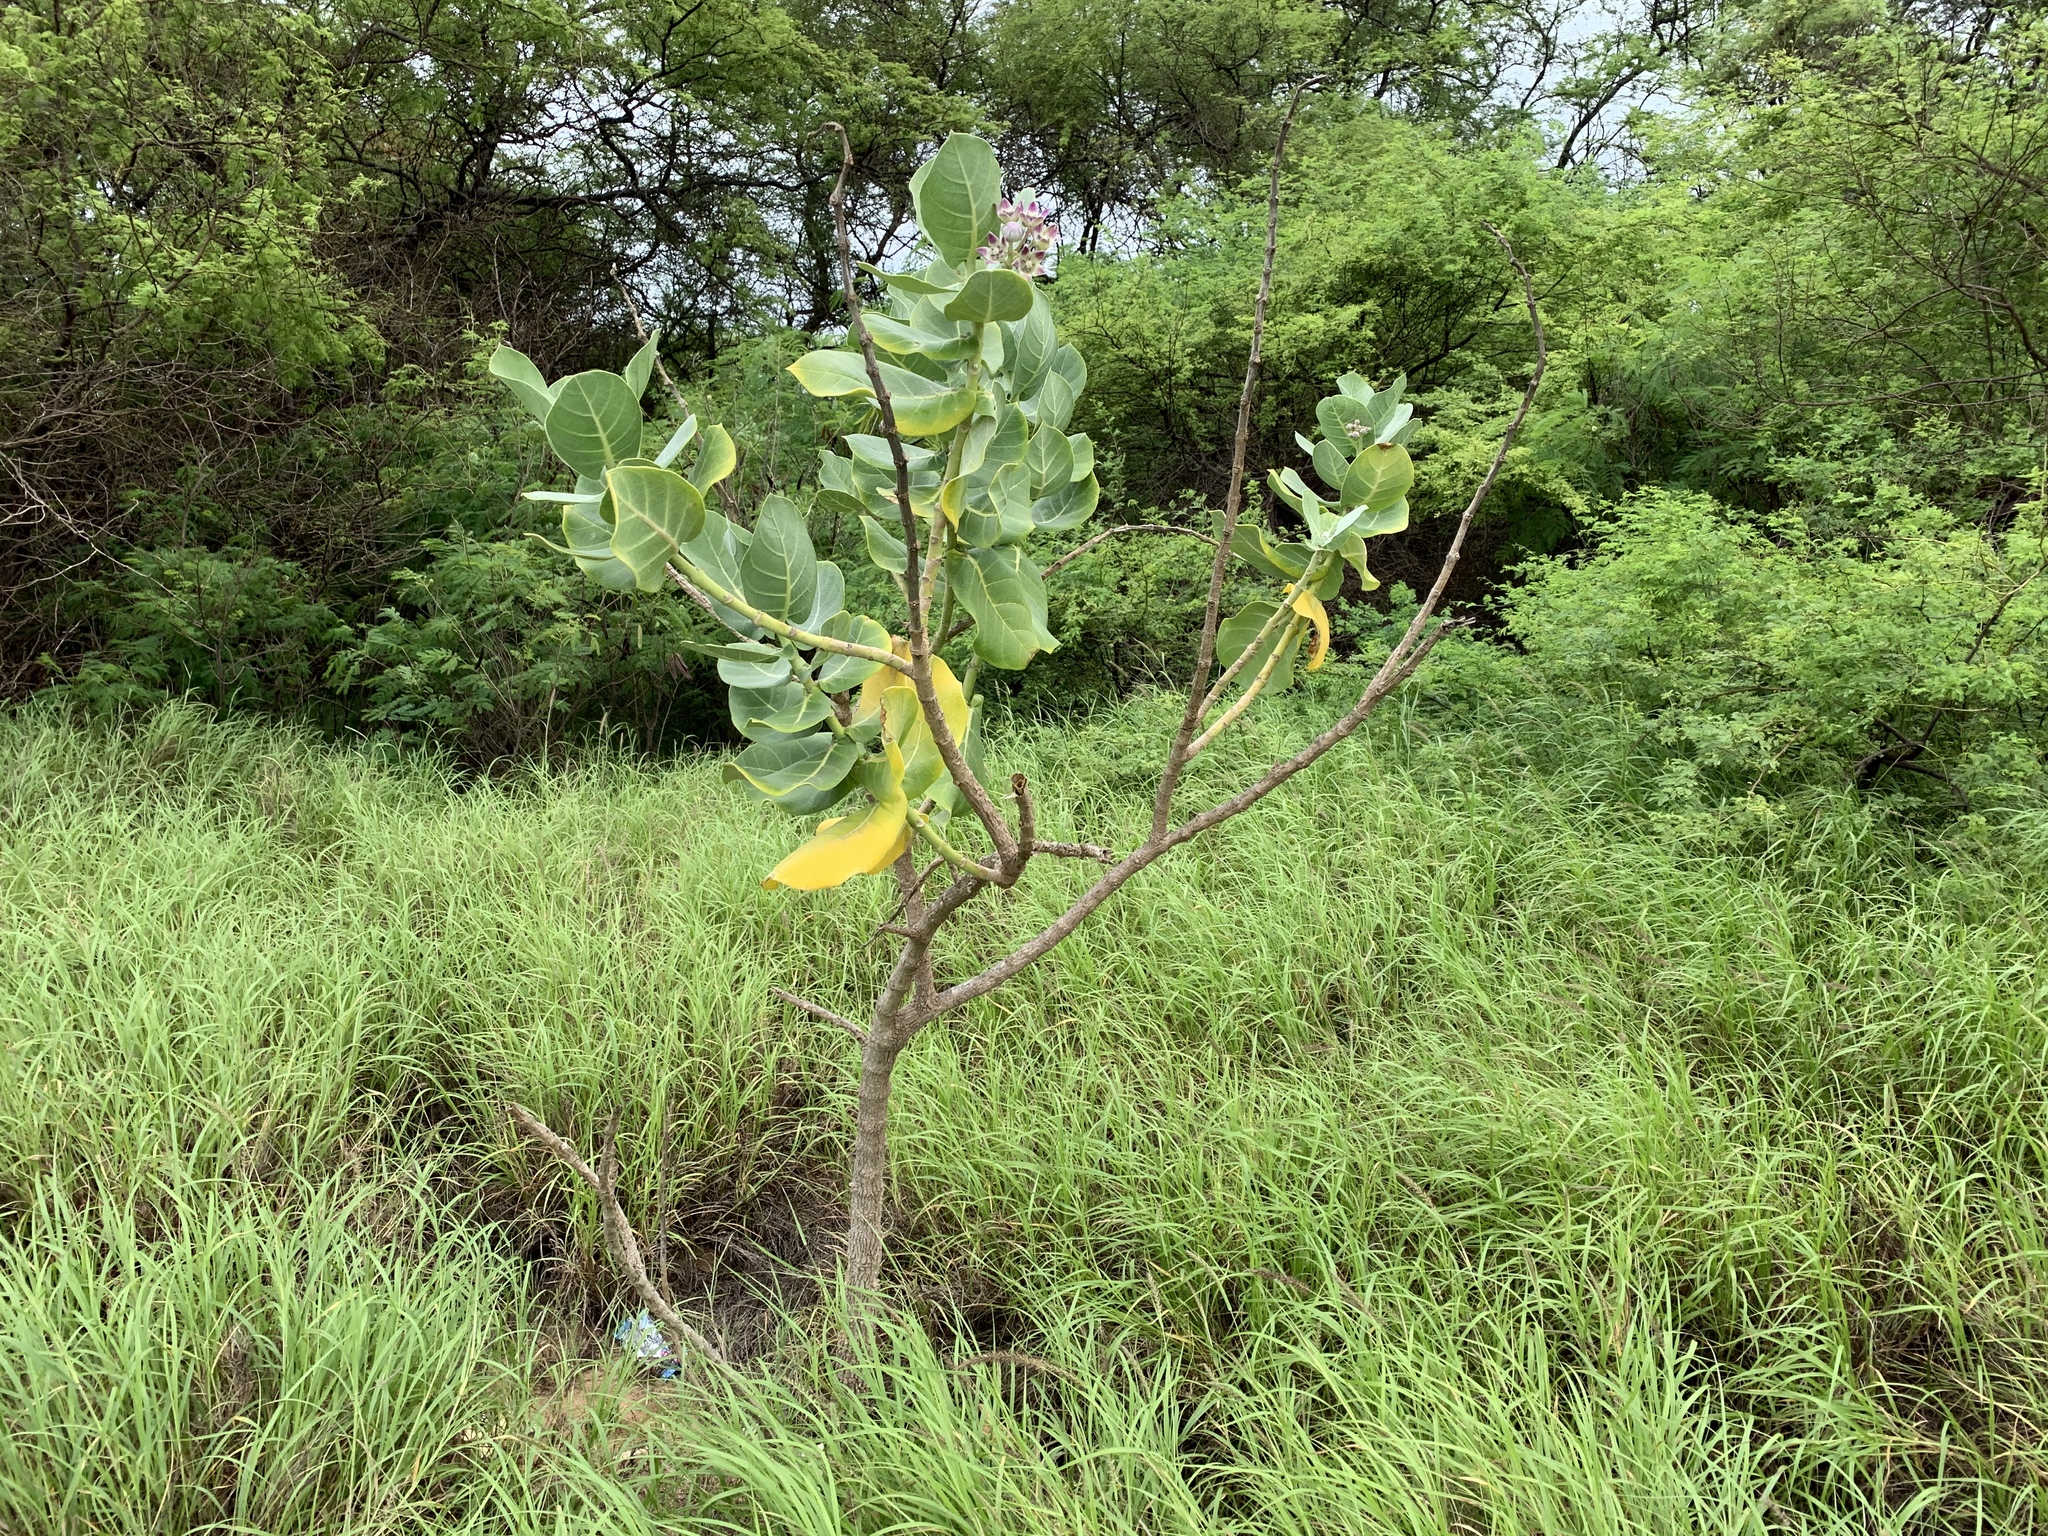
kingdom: Plantae
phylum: Tracheophyta
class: Magnoliopsida
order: Gentianales
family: Apocynaceae
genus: Calotropis
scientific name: Calotropis procera
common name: Roostertree
